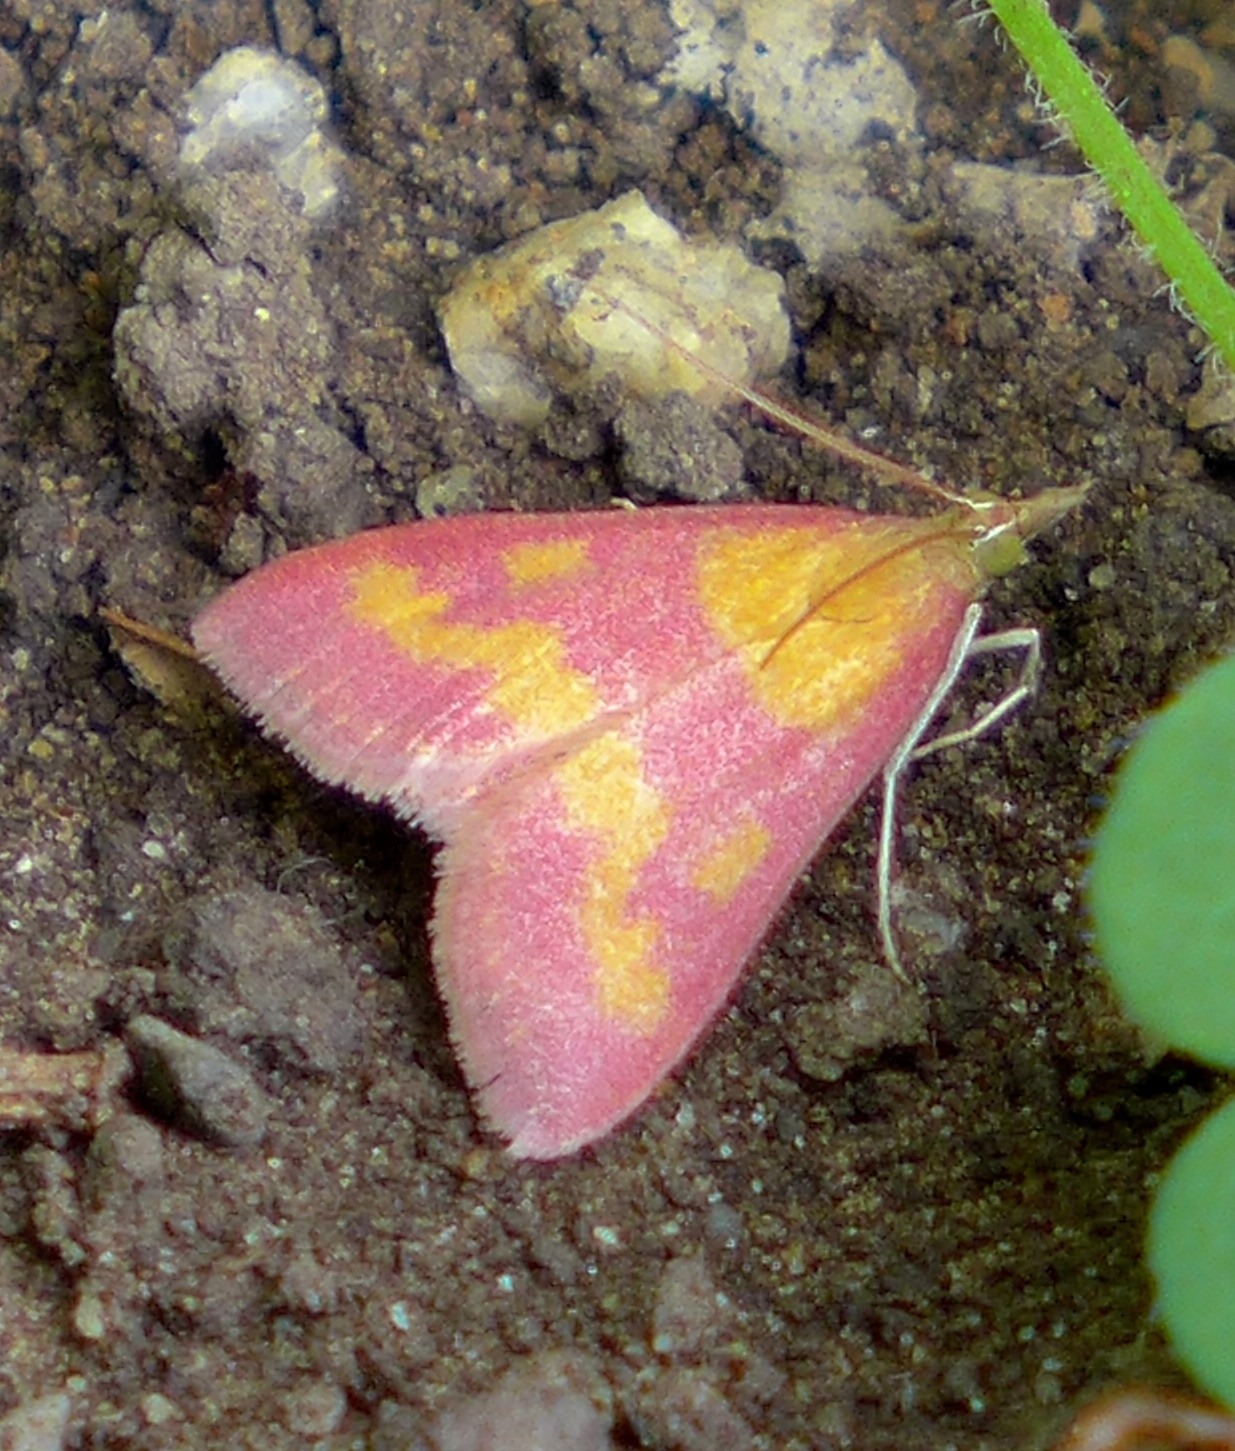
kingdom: Animalia
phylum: Arthropoda
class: Insecta
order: Lepidoptera
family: Crambidae
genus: Pyrausta
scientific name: Pyrausta laticlavia
